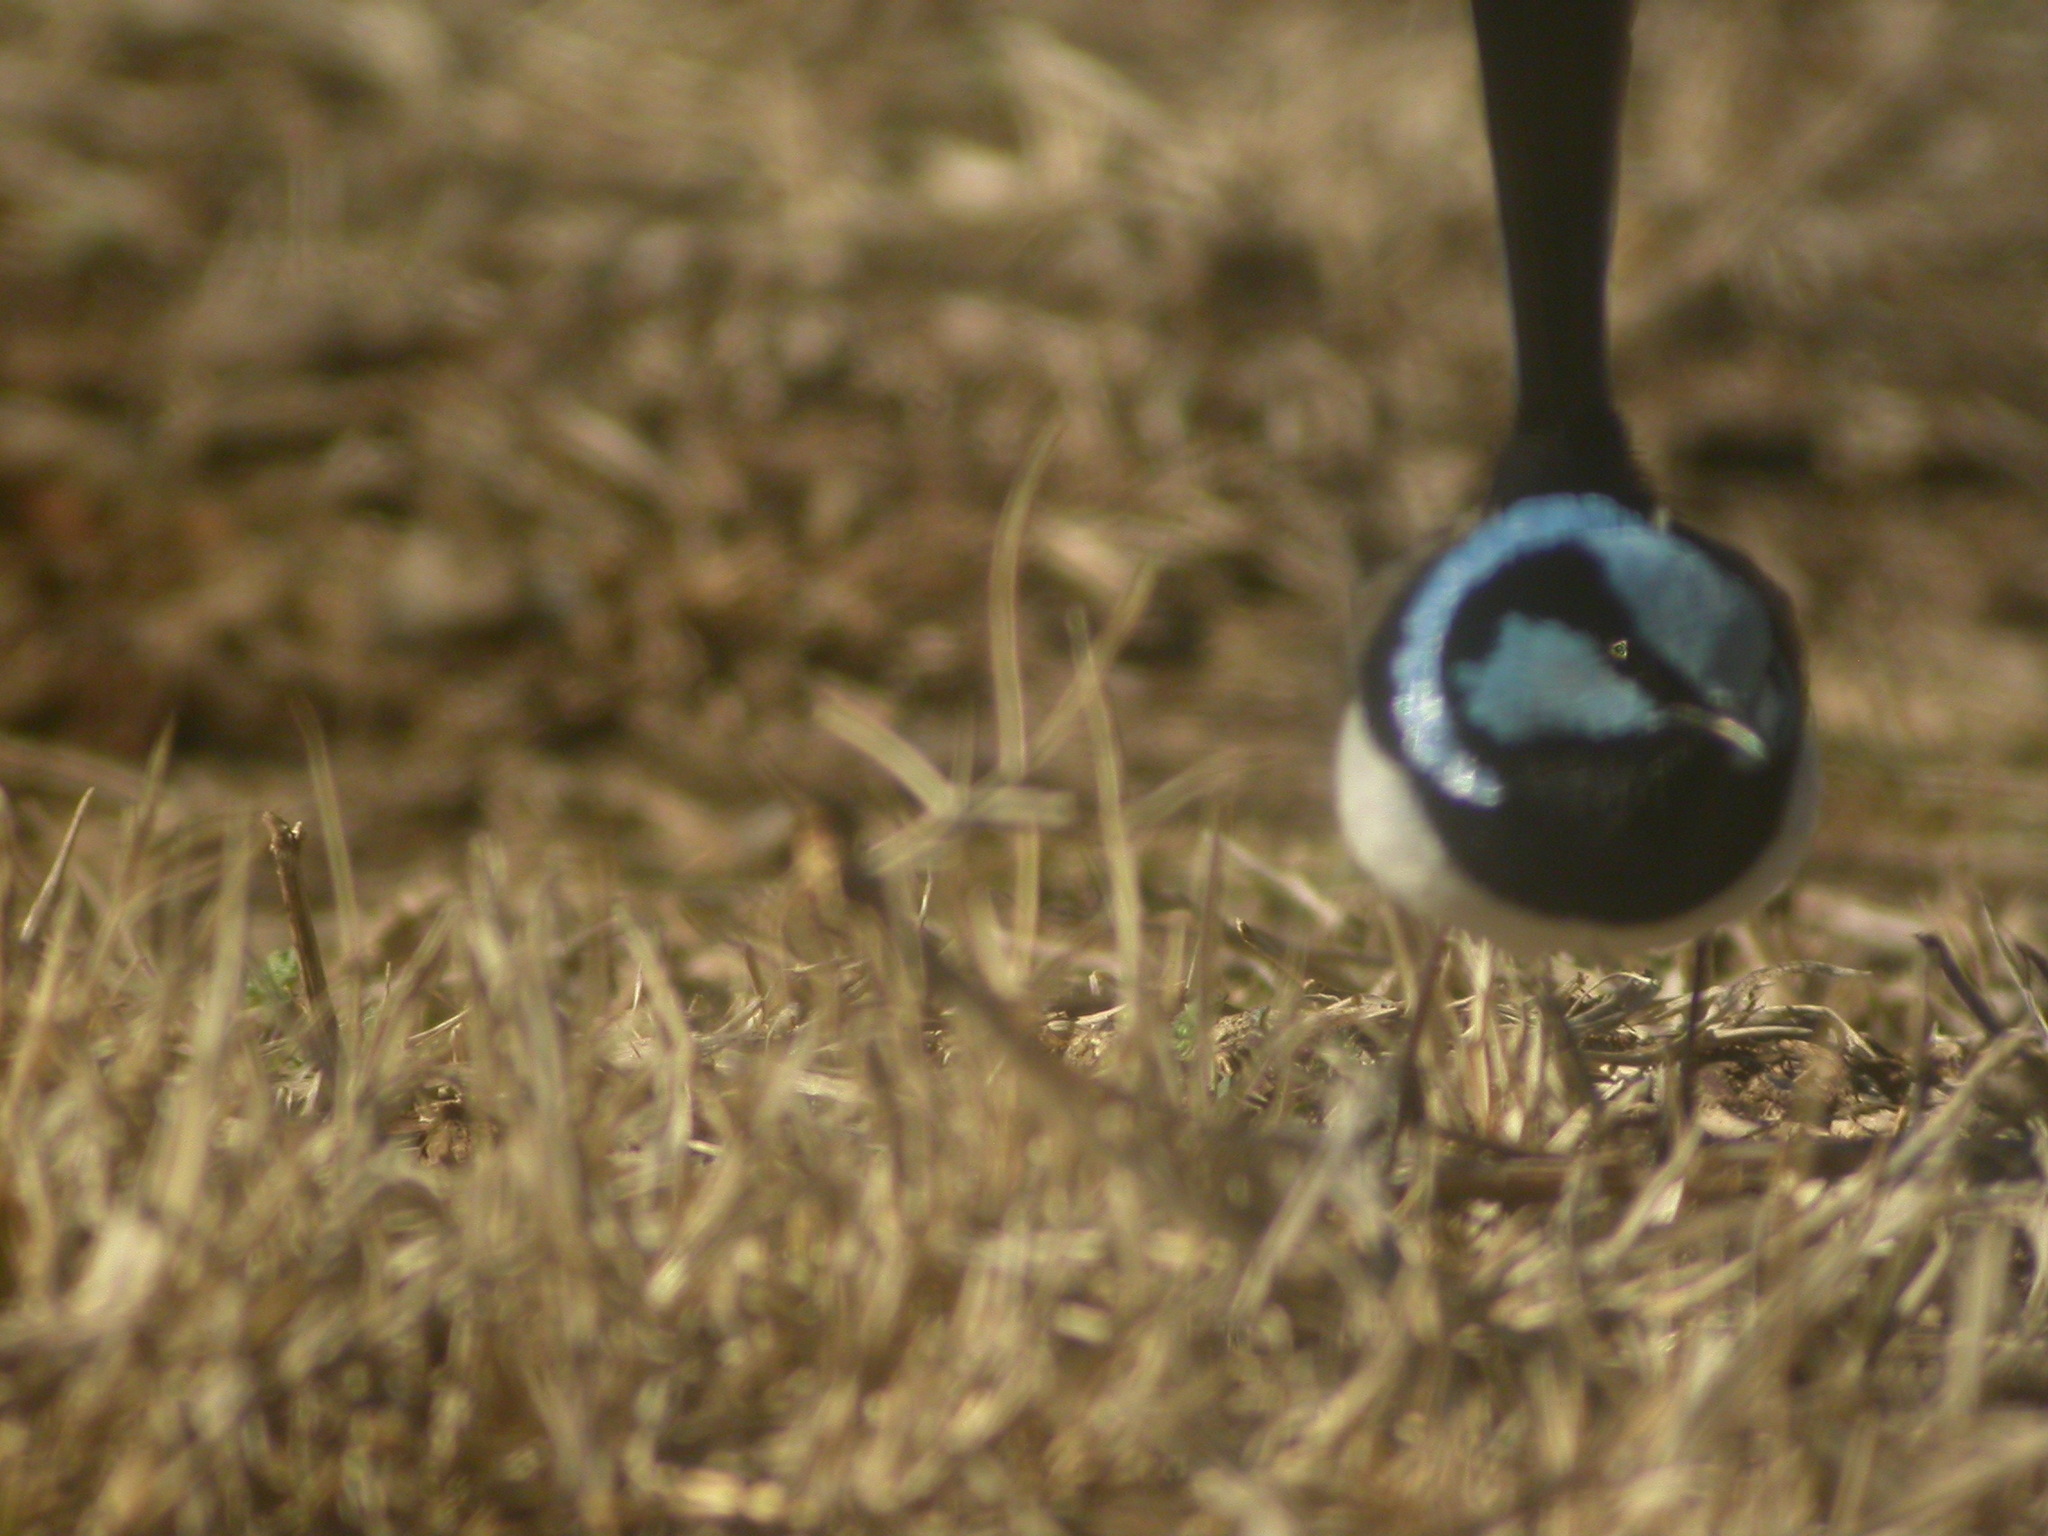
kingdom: Animalia
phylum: Chordata
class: Aves
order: Passeriformes
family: Maluridae
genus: Malurus
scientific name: Malurus cyaneus
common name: Superb fairywren
